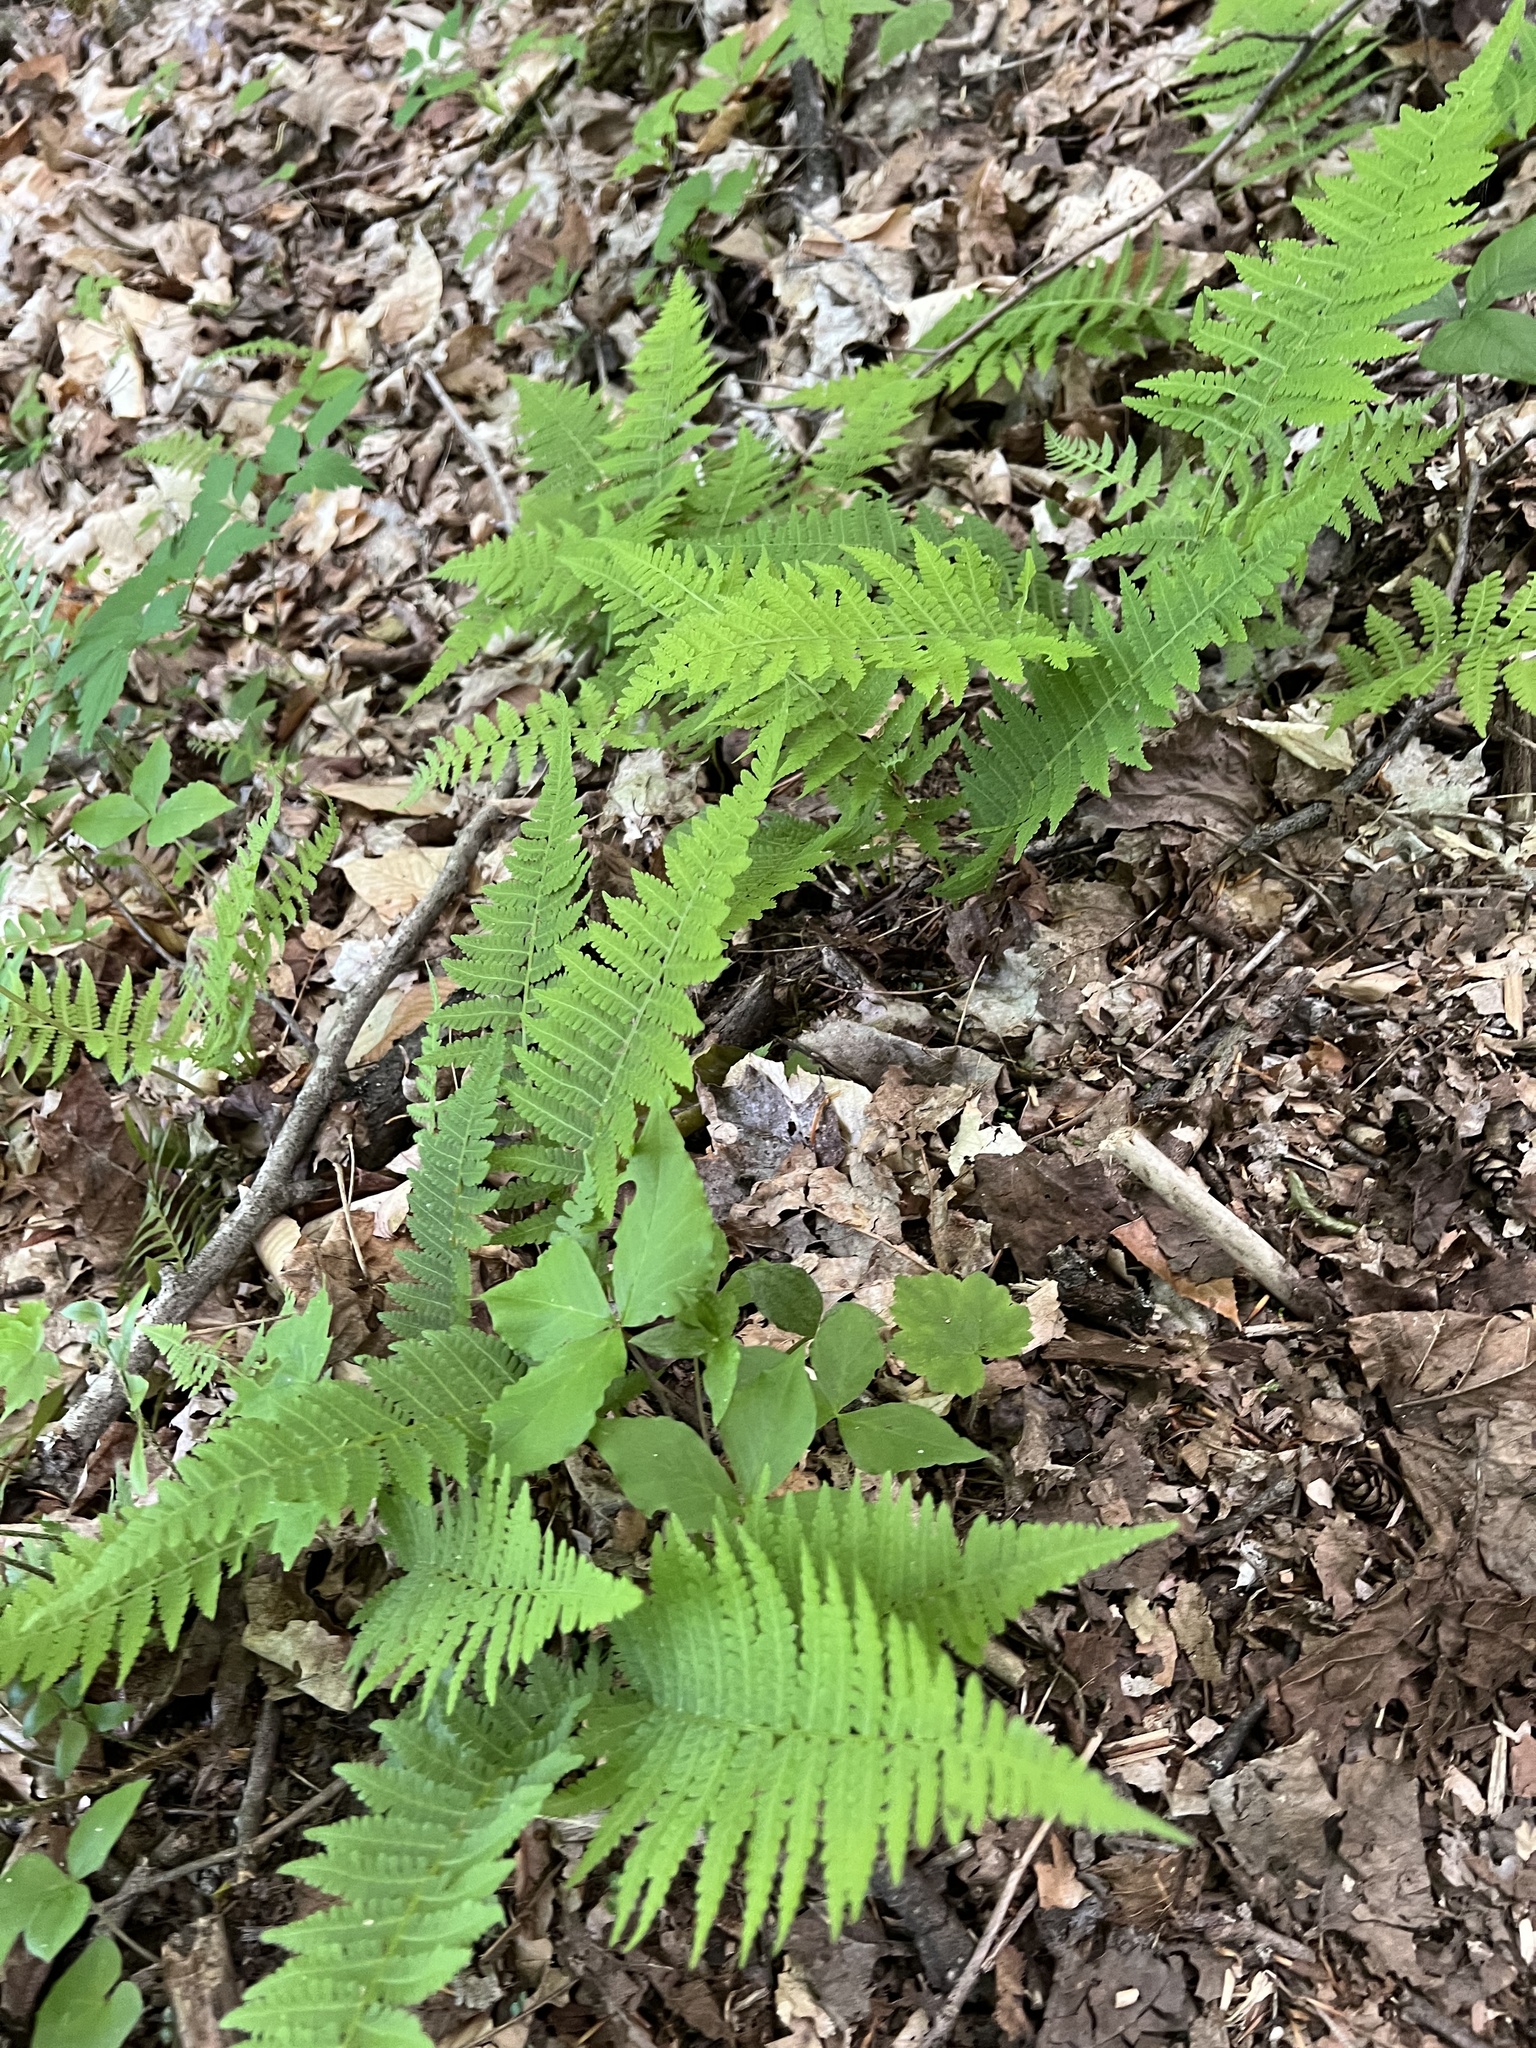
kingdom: Plantae
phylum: Tracheophyta
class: Polypodiopsida
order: Polypodiales
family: Athyriaceae
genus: Deparia
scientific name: Deparia acrostichoides
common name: Silver false spleenwort
